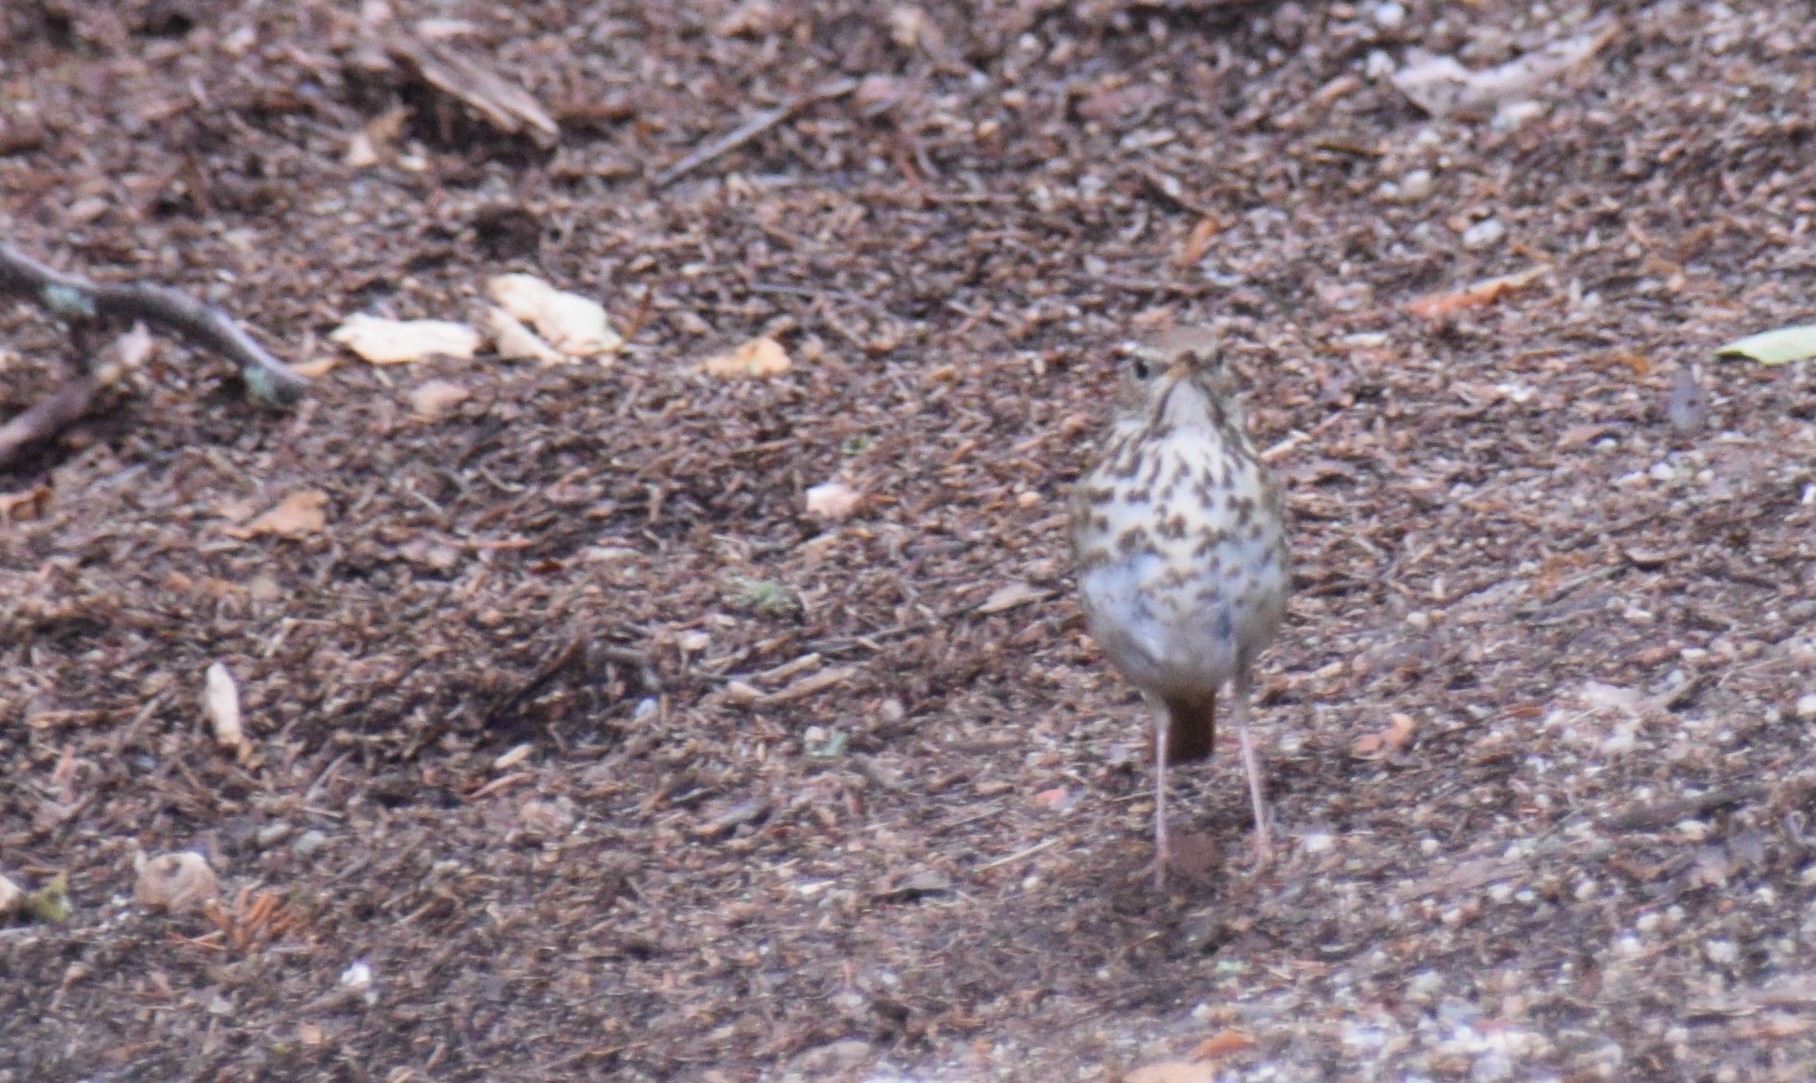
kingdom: Animalia
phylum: Chordata
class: Aves
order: Passeriformes
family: Turdidae
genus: Catharus
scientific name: Catharus guttatus
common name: Hermit thrush
